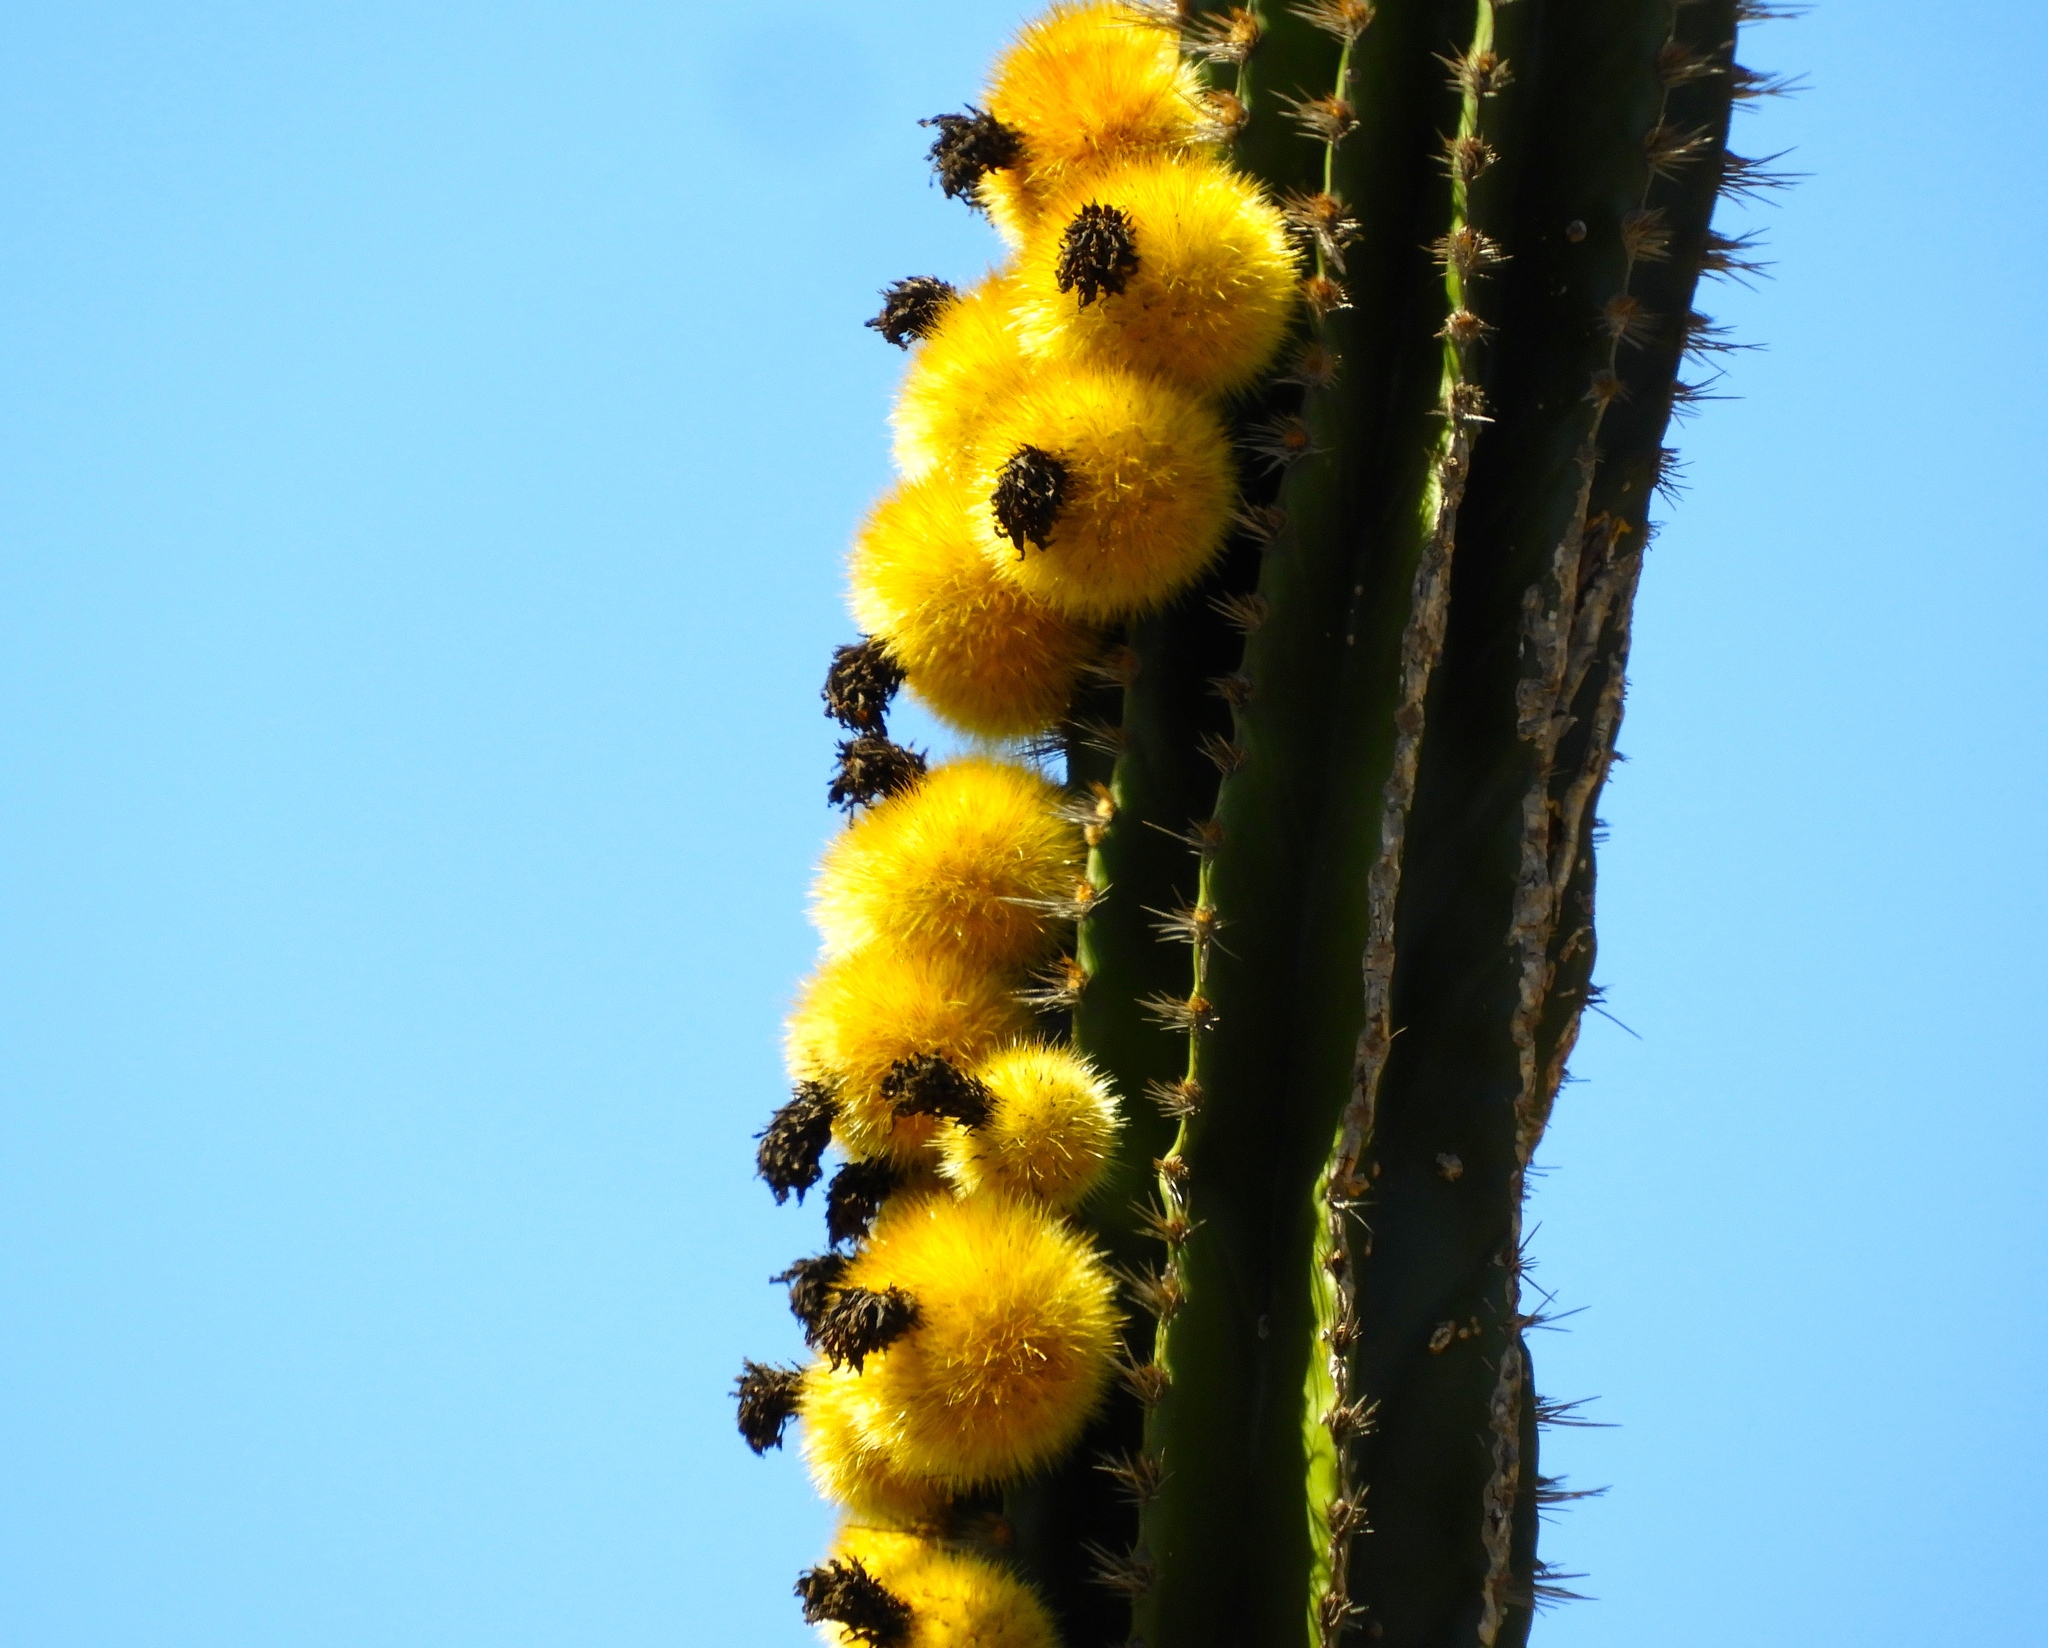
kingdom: Plantae
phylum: Tracheophyta
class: Magnoliopsida
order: Caryophyllales
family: Cactaceae
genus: Pachycereus
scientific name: Pachycereus pecten-aboriginum
